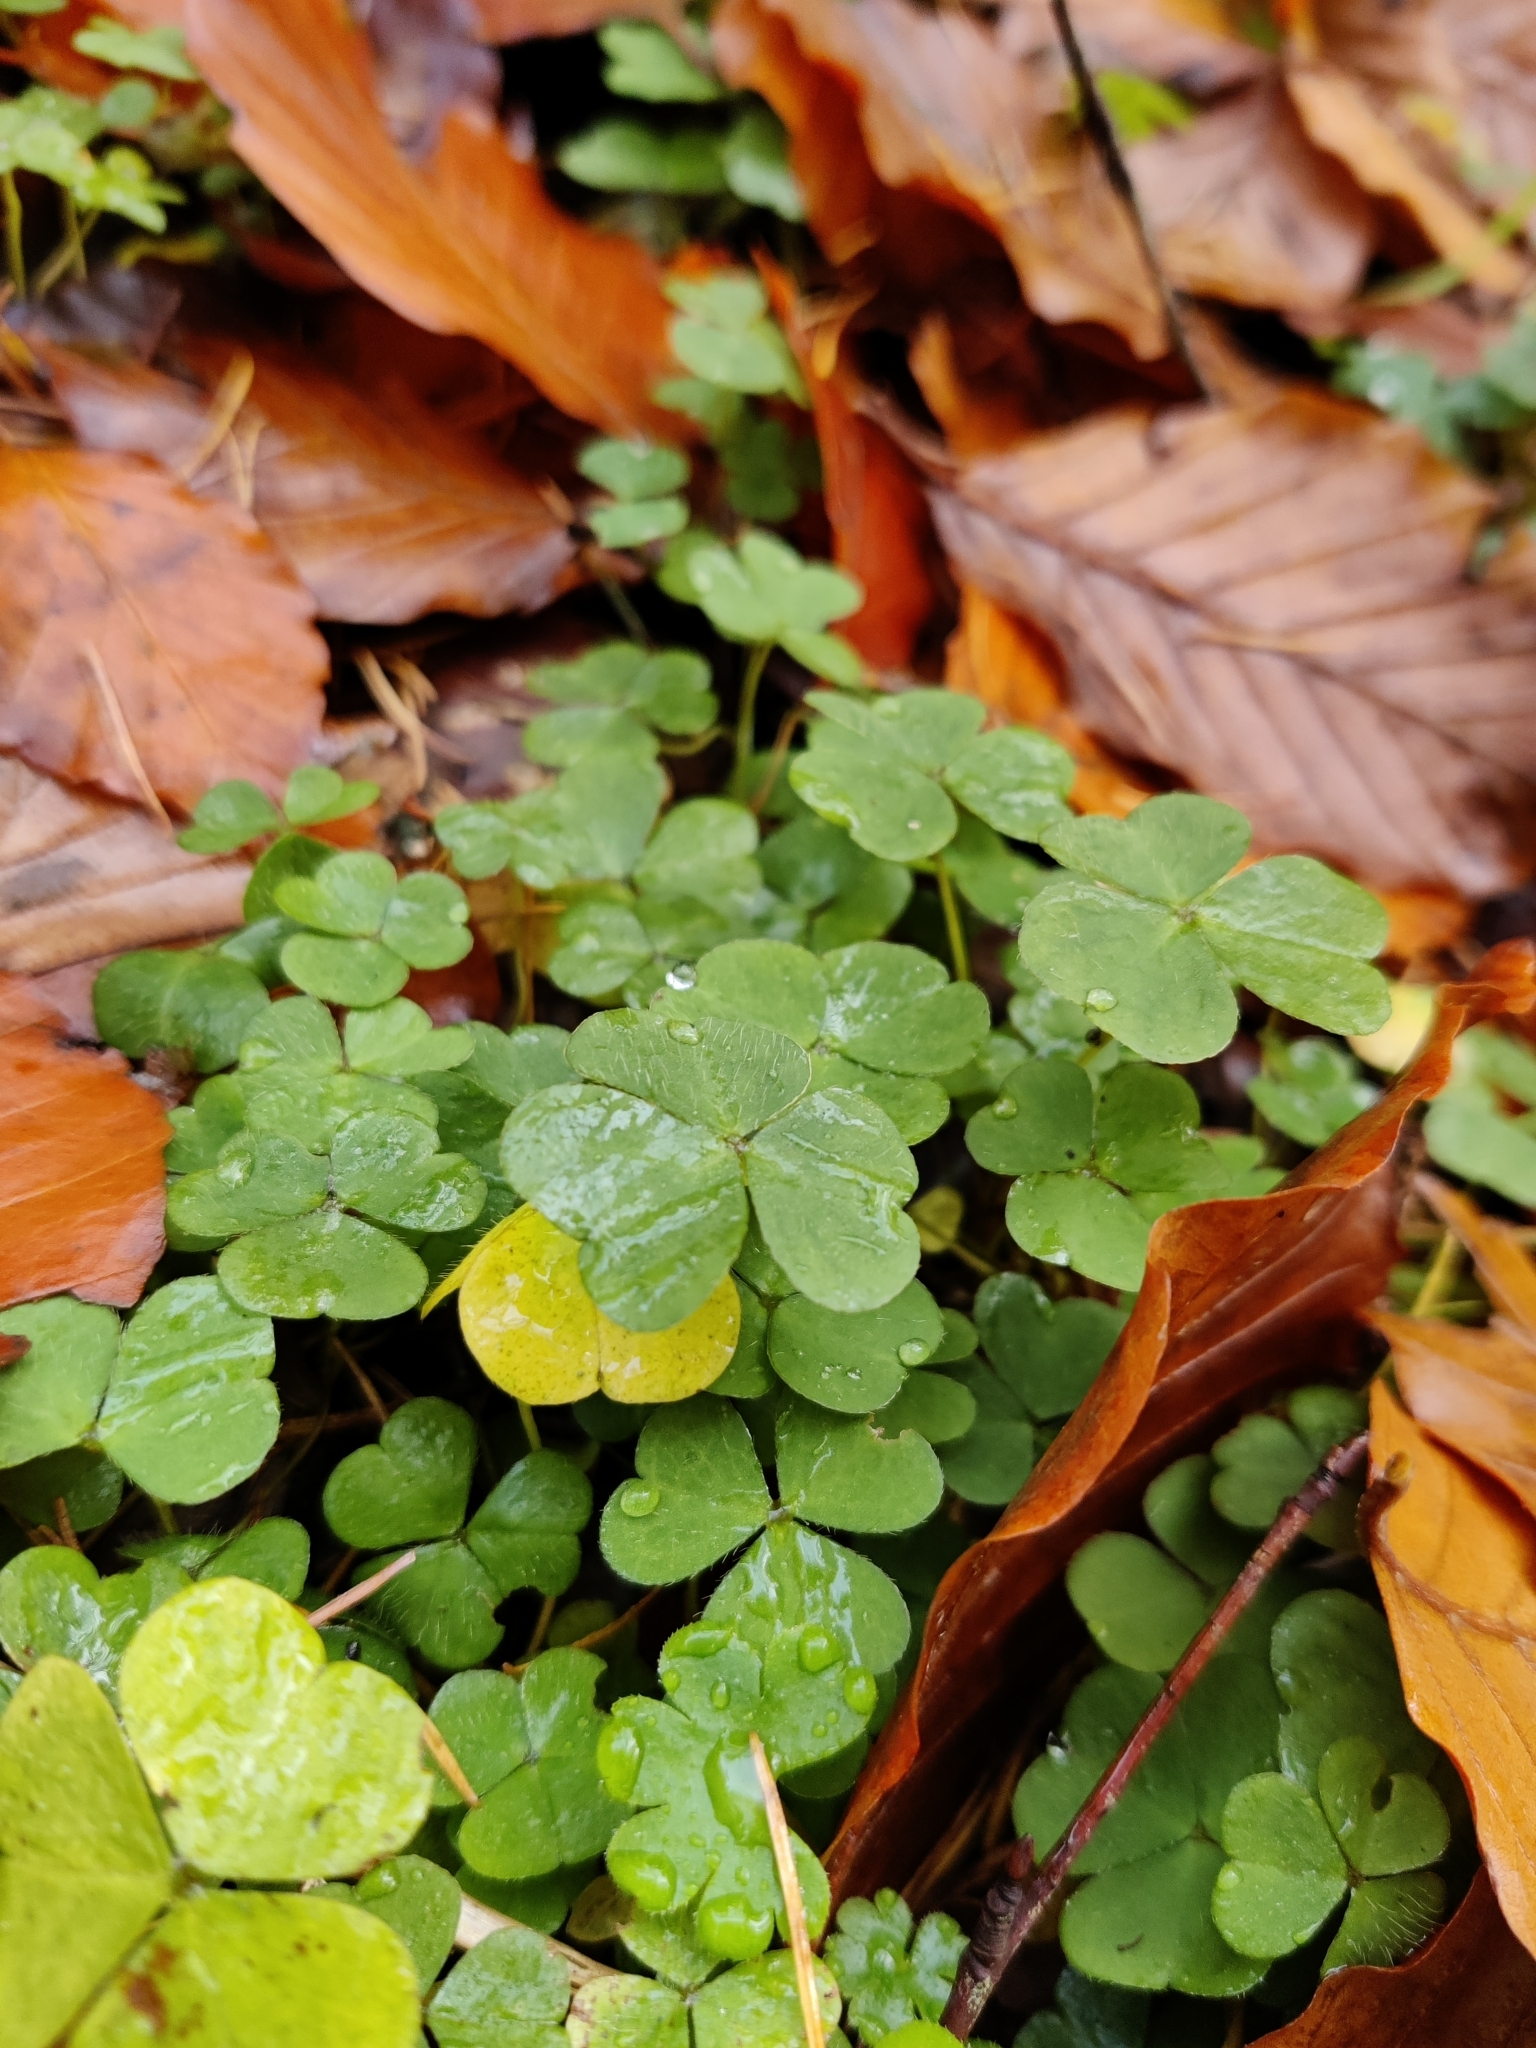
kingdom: Plantae
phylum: Tracheophyta
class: Magnoliopsida
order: Oxalidales
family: Oxalidaceae
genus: Oxalis
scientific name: Oxalis acetosella
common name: Wood-sorrel
